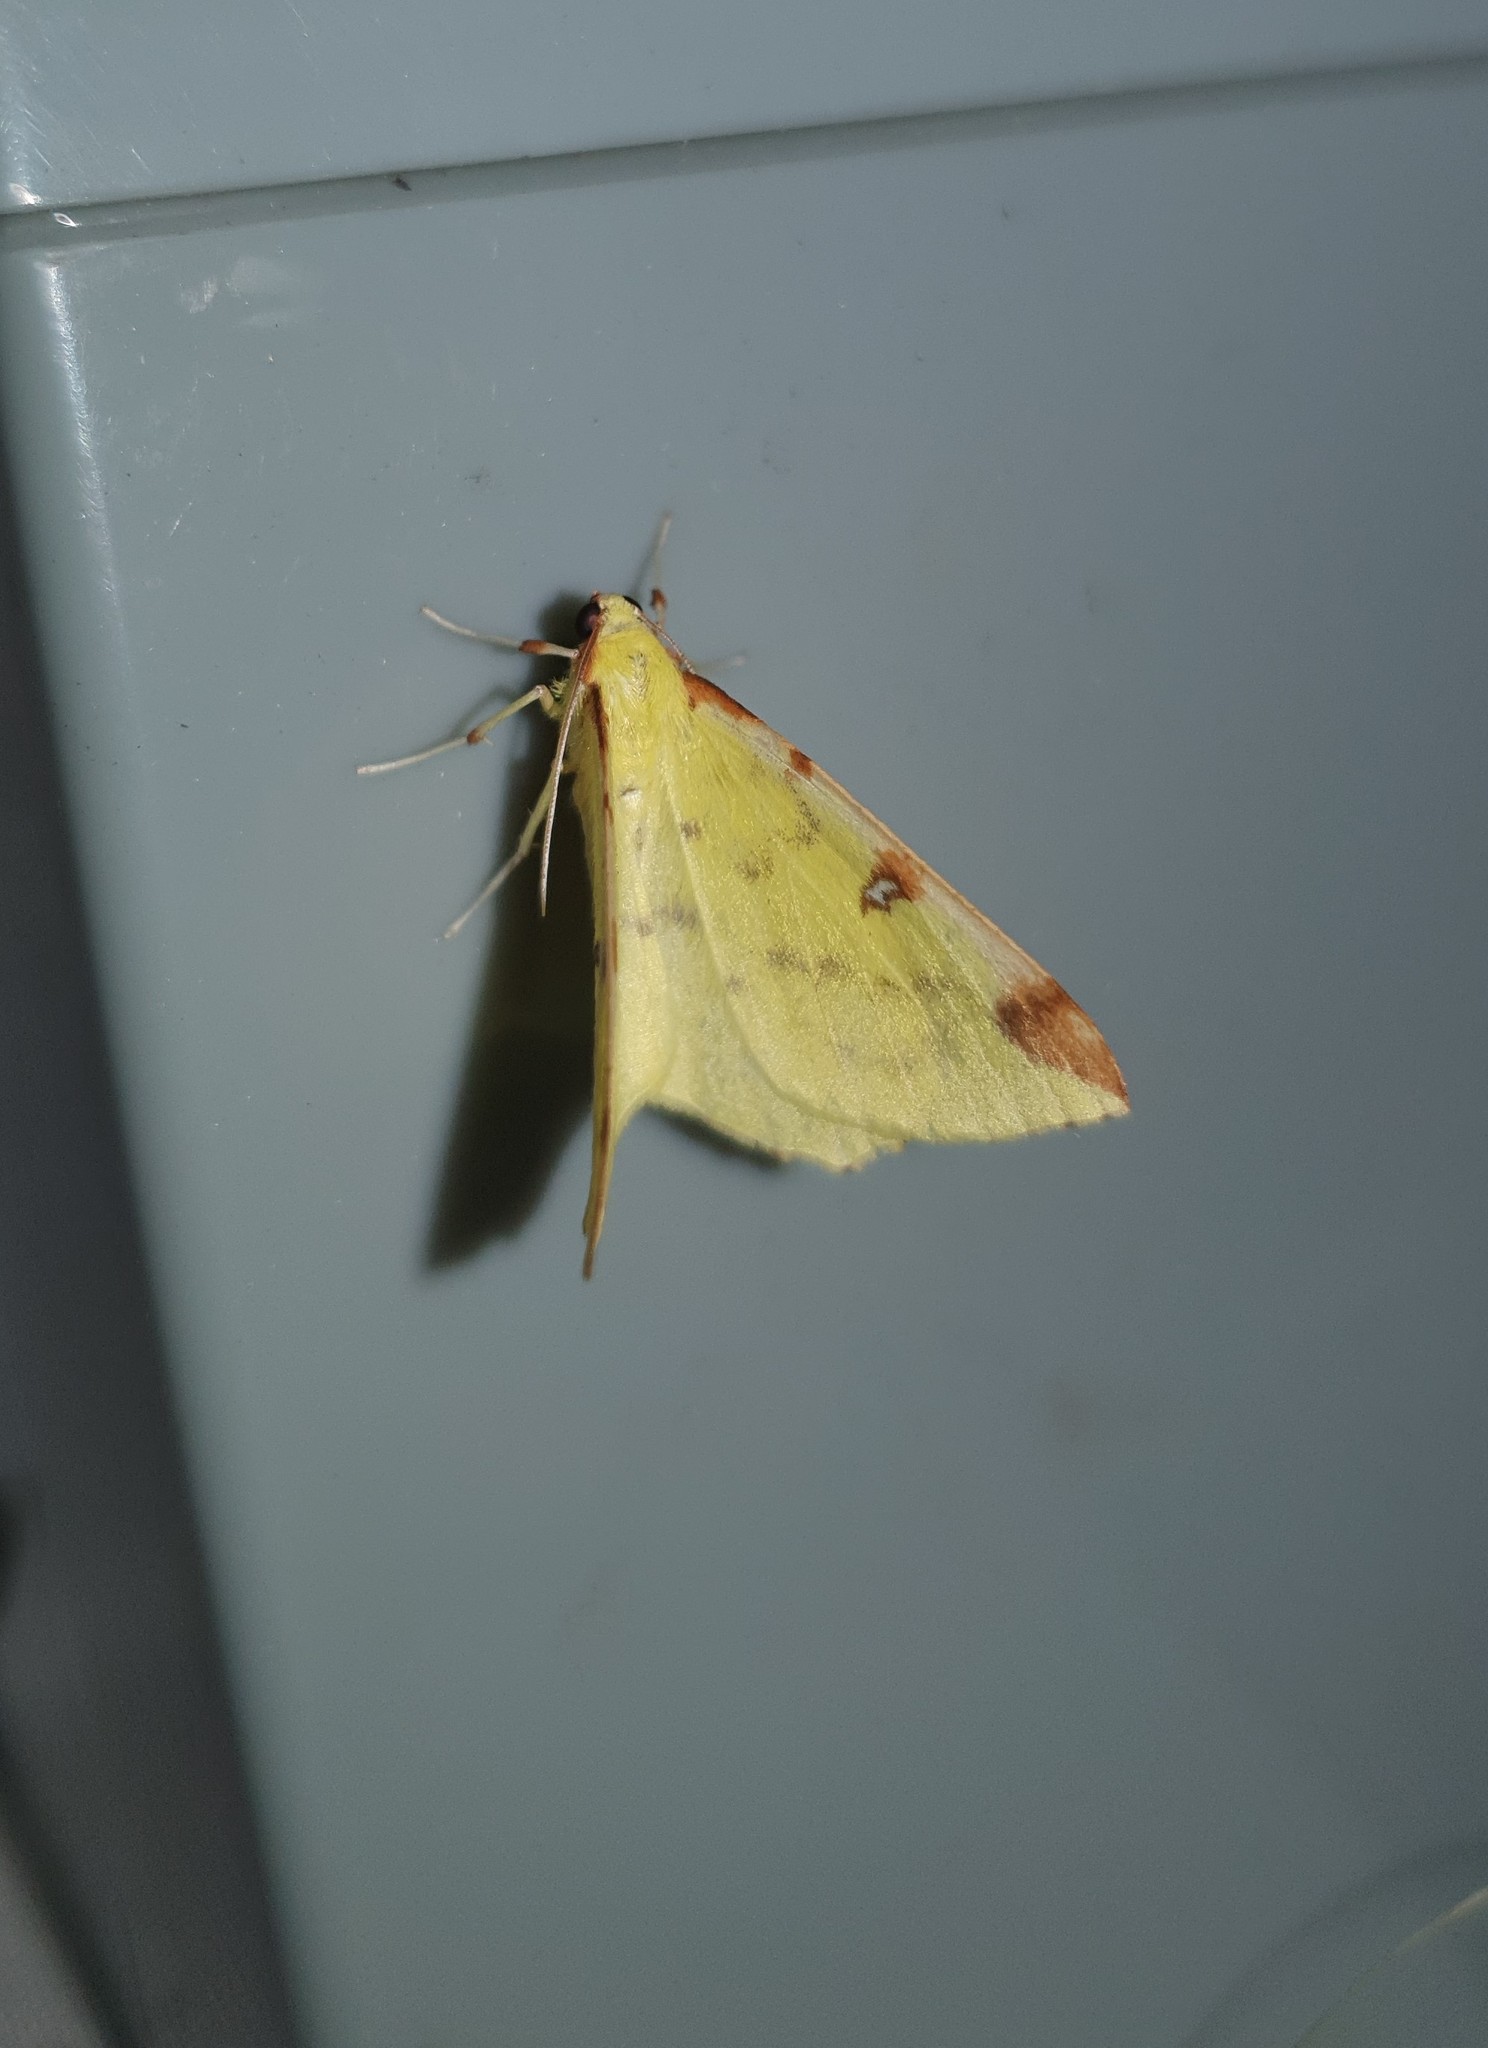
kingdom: Animalia
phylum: Arthropoda
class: Insecta
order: Lepidoptera
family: Geometridae
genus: Opisthograptis
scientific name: Opisthograptis luteolata
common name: Brimstone moth
